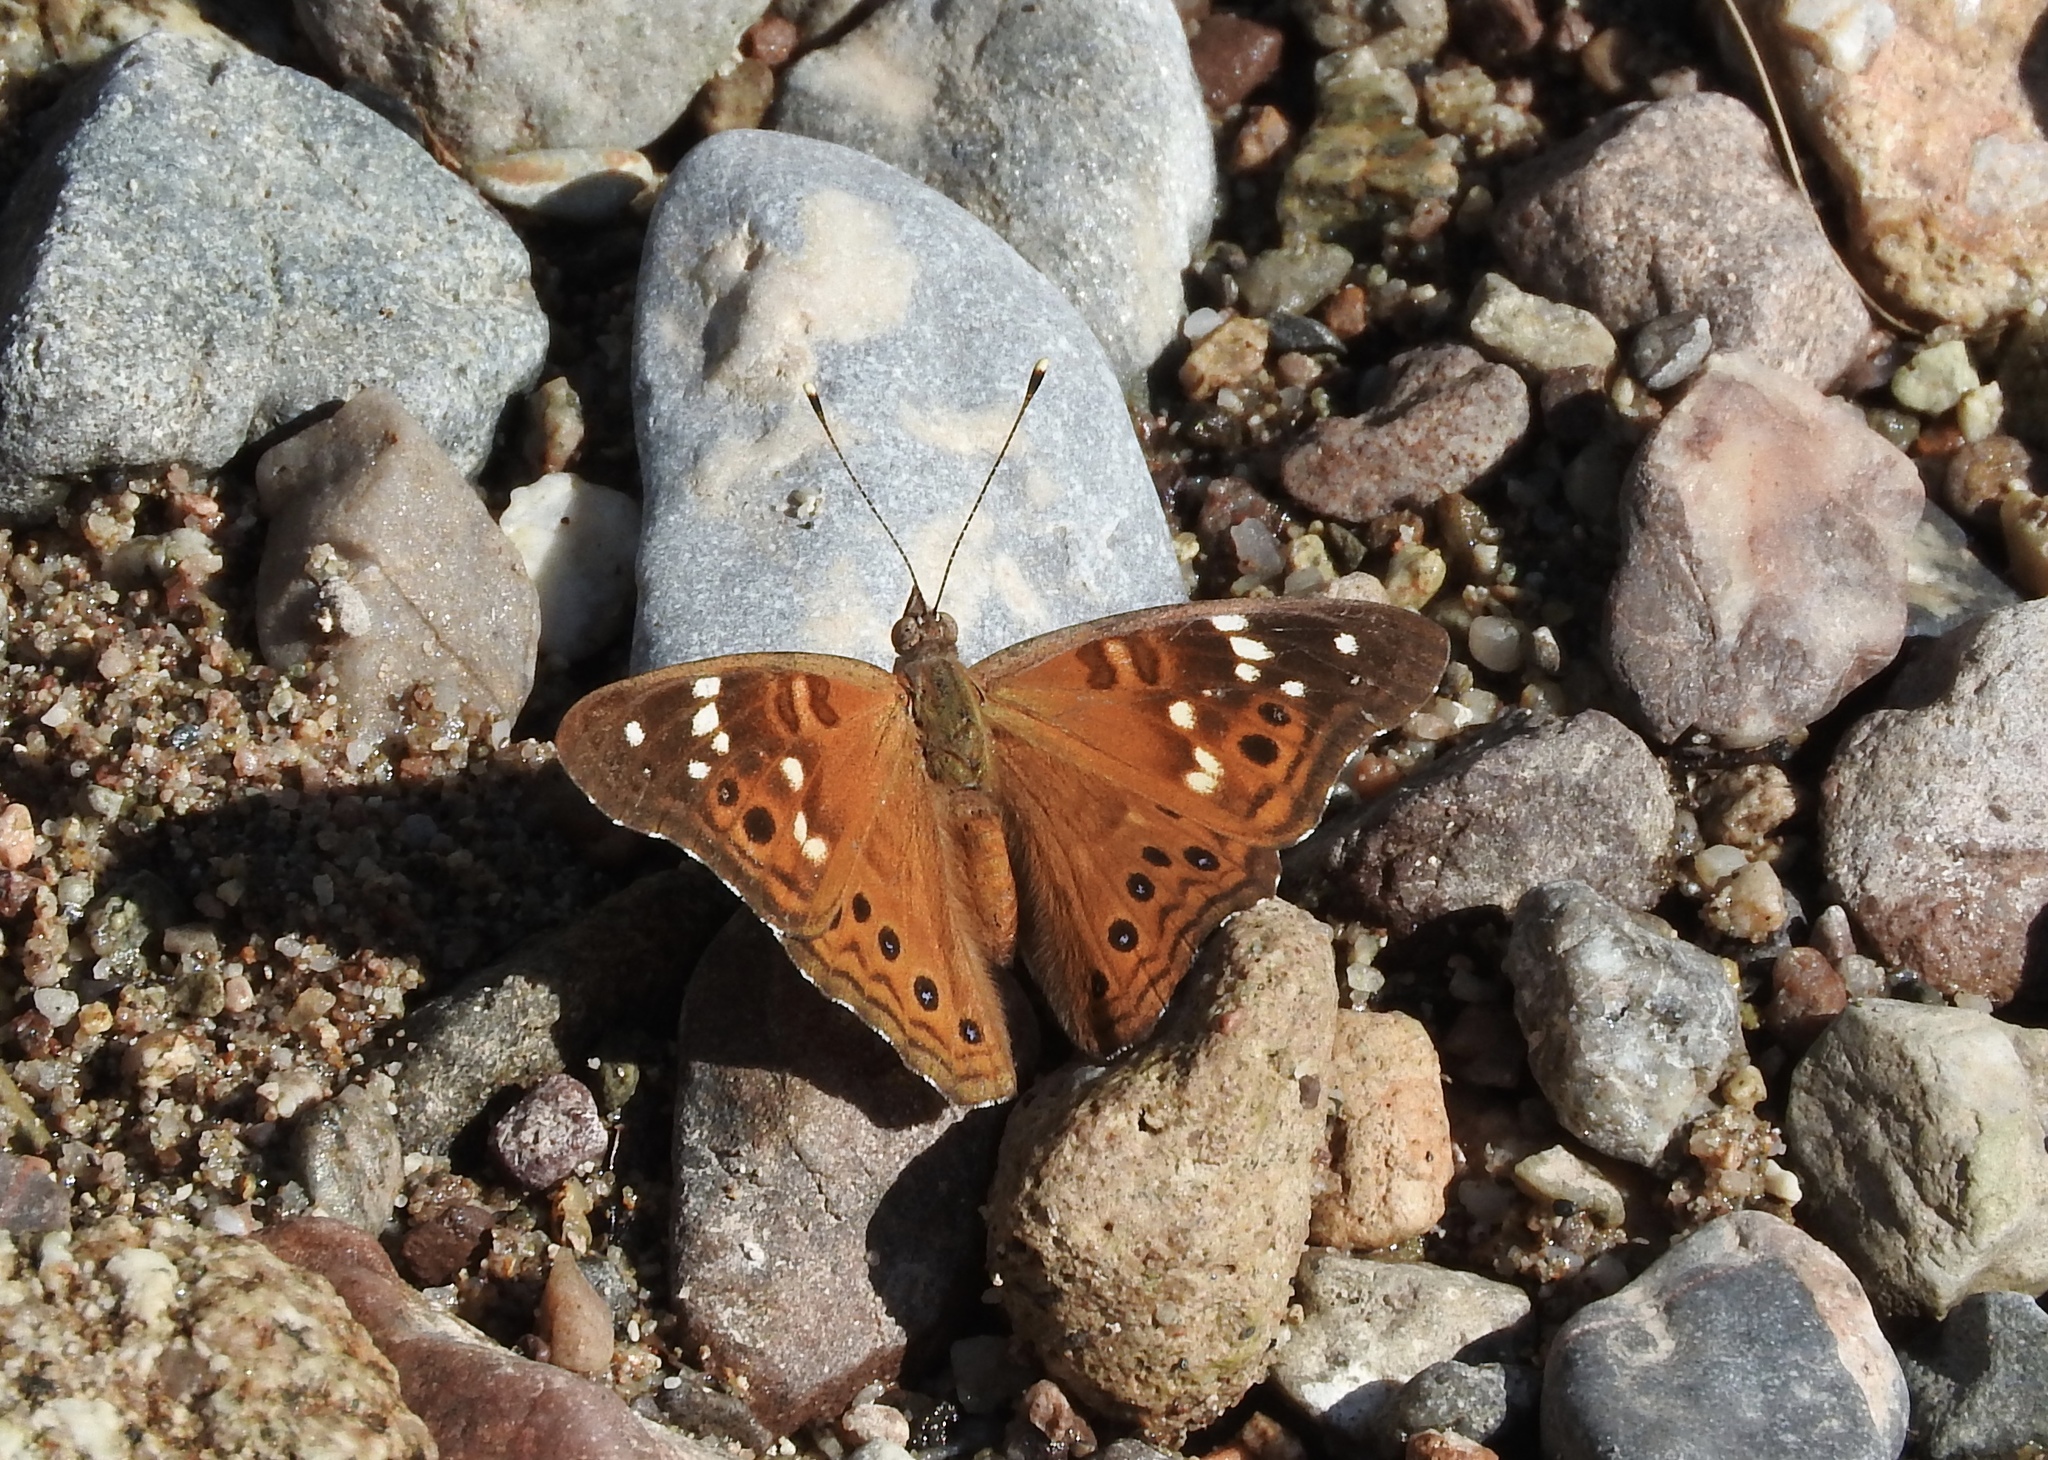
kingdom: Animalia
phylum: Arthropoda
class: Insecta
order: Lepidoptera
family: Nymphalidae
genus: Asterocampa
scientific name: Asterocampa leilia
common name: Empress leilia
